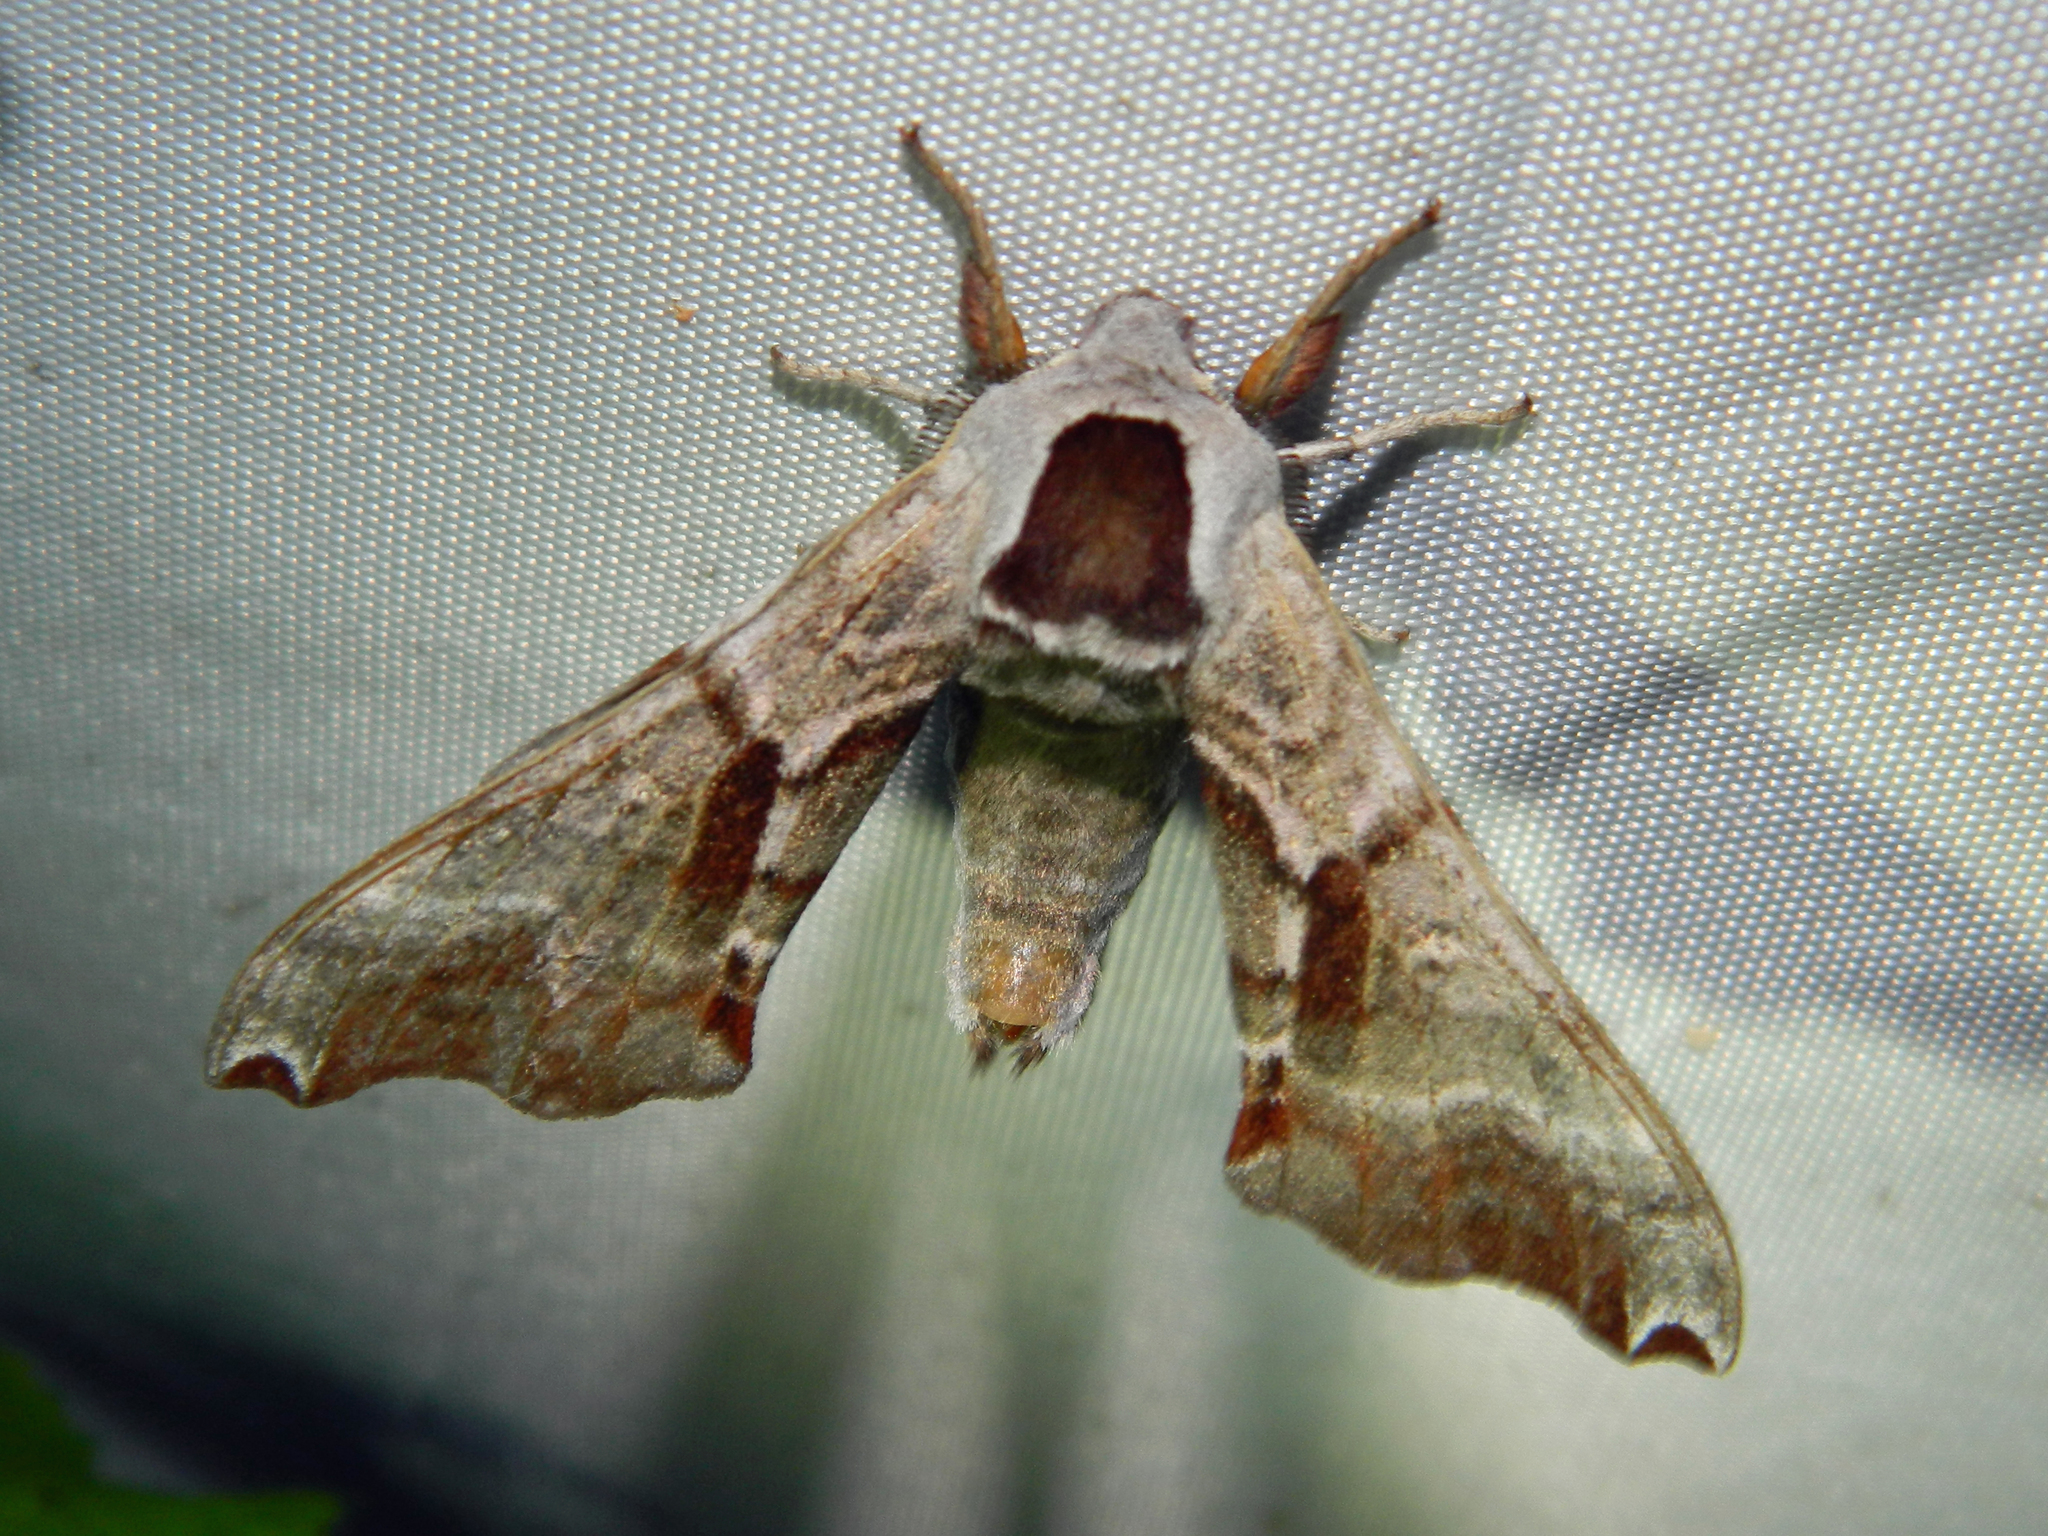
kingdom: Animalia
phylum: Arthropoda
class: Insecta
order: Lepidoptera
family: Sphingidae
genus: Smerinthus
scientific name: Smerinthus jamaicensis
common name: Twin spotted sphinx
